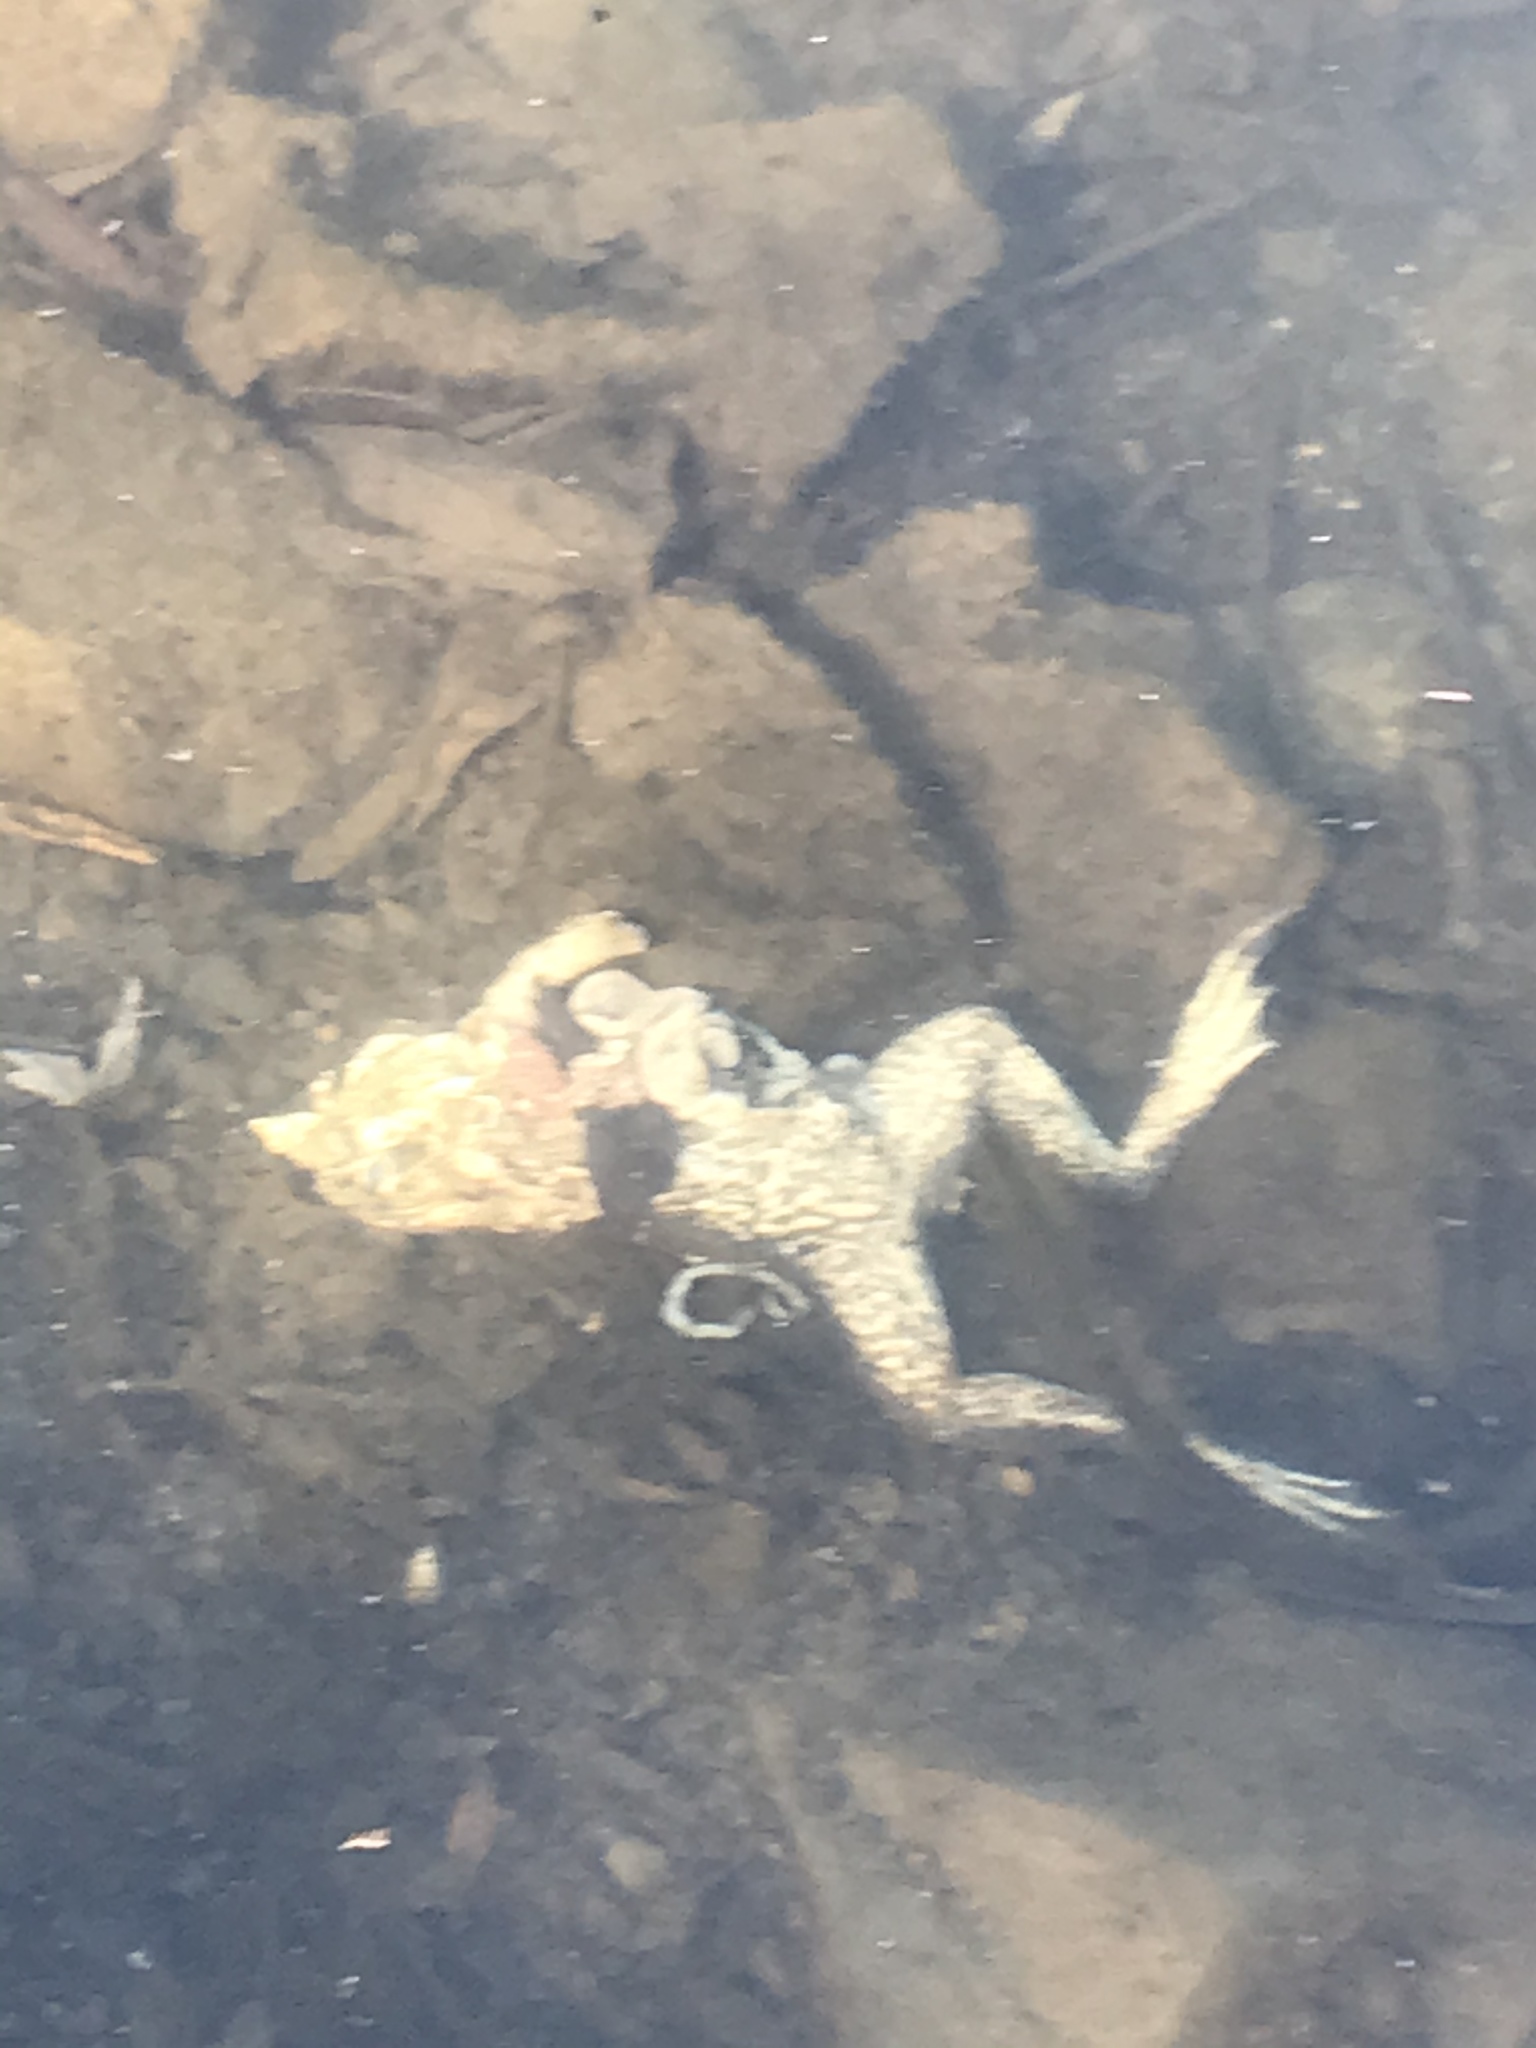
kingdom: Animalia
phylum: Chordata
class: Amphibia
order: Anura
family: Ranidae
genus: Lithobates
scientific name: Lithobates catesbeianus
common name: American bullfrog
